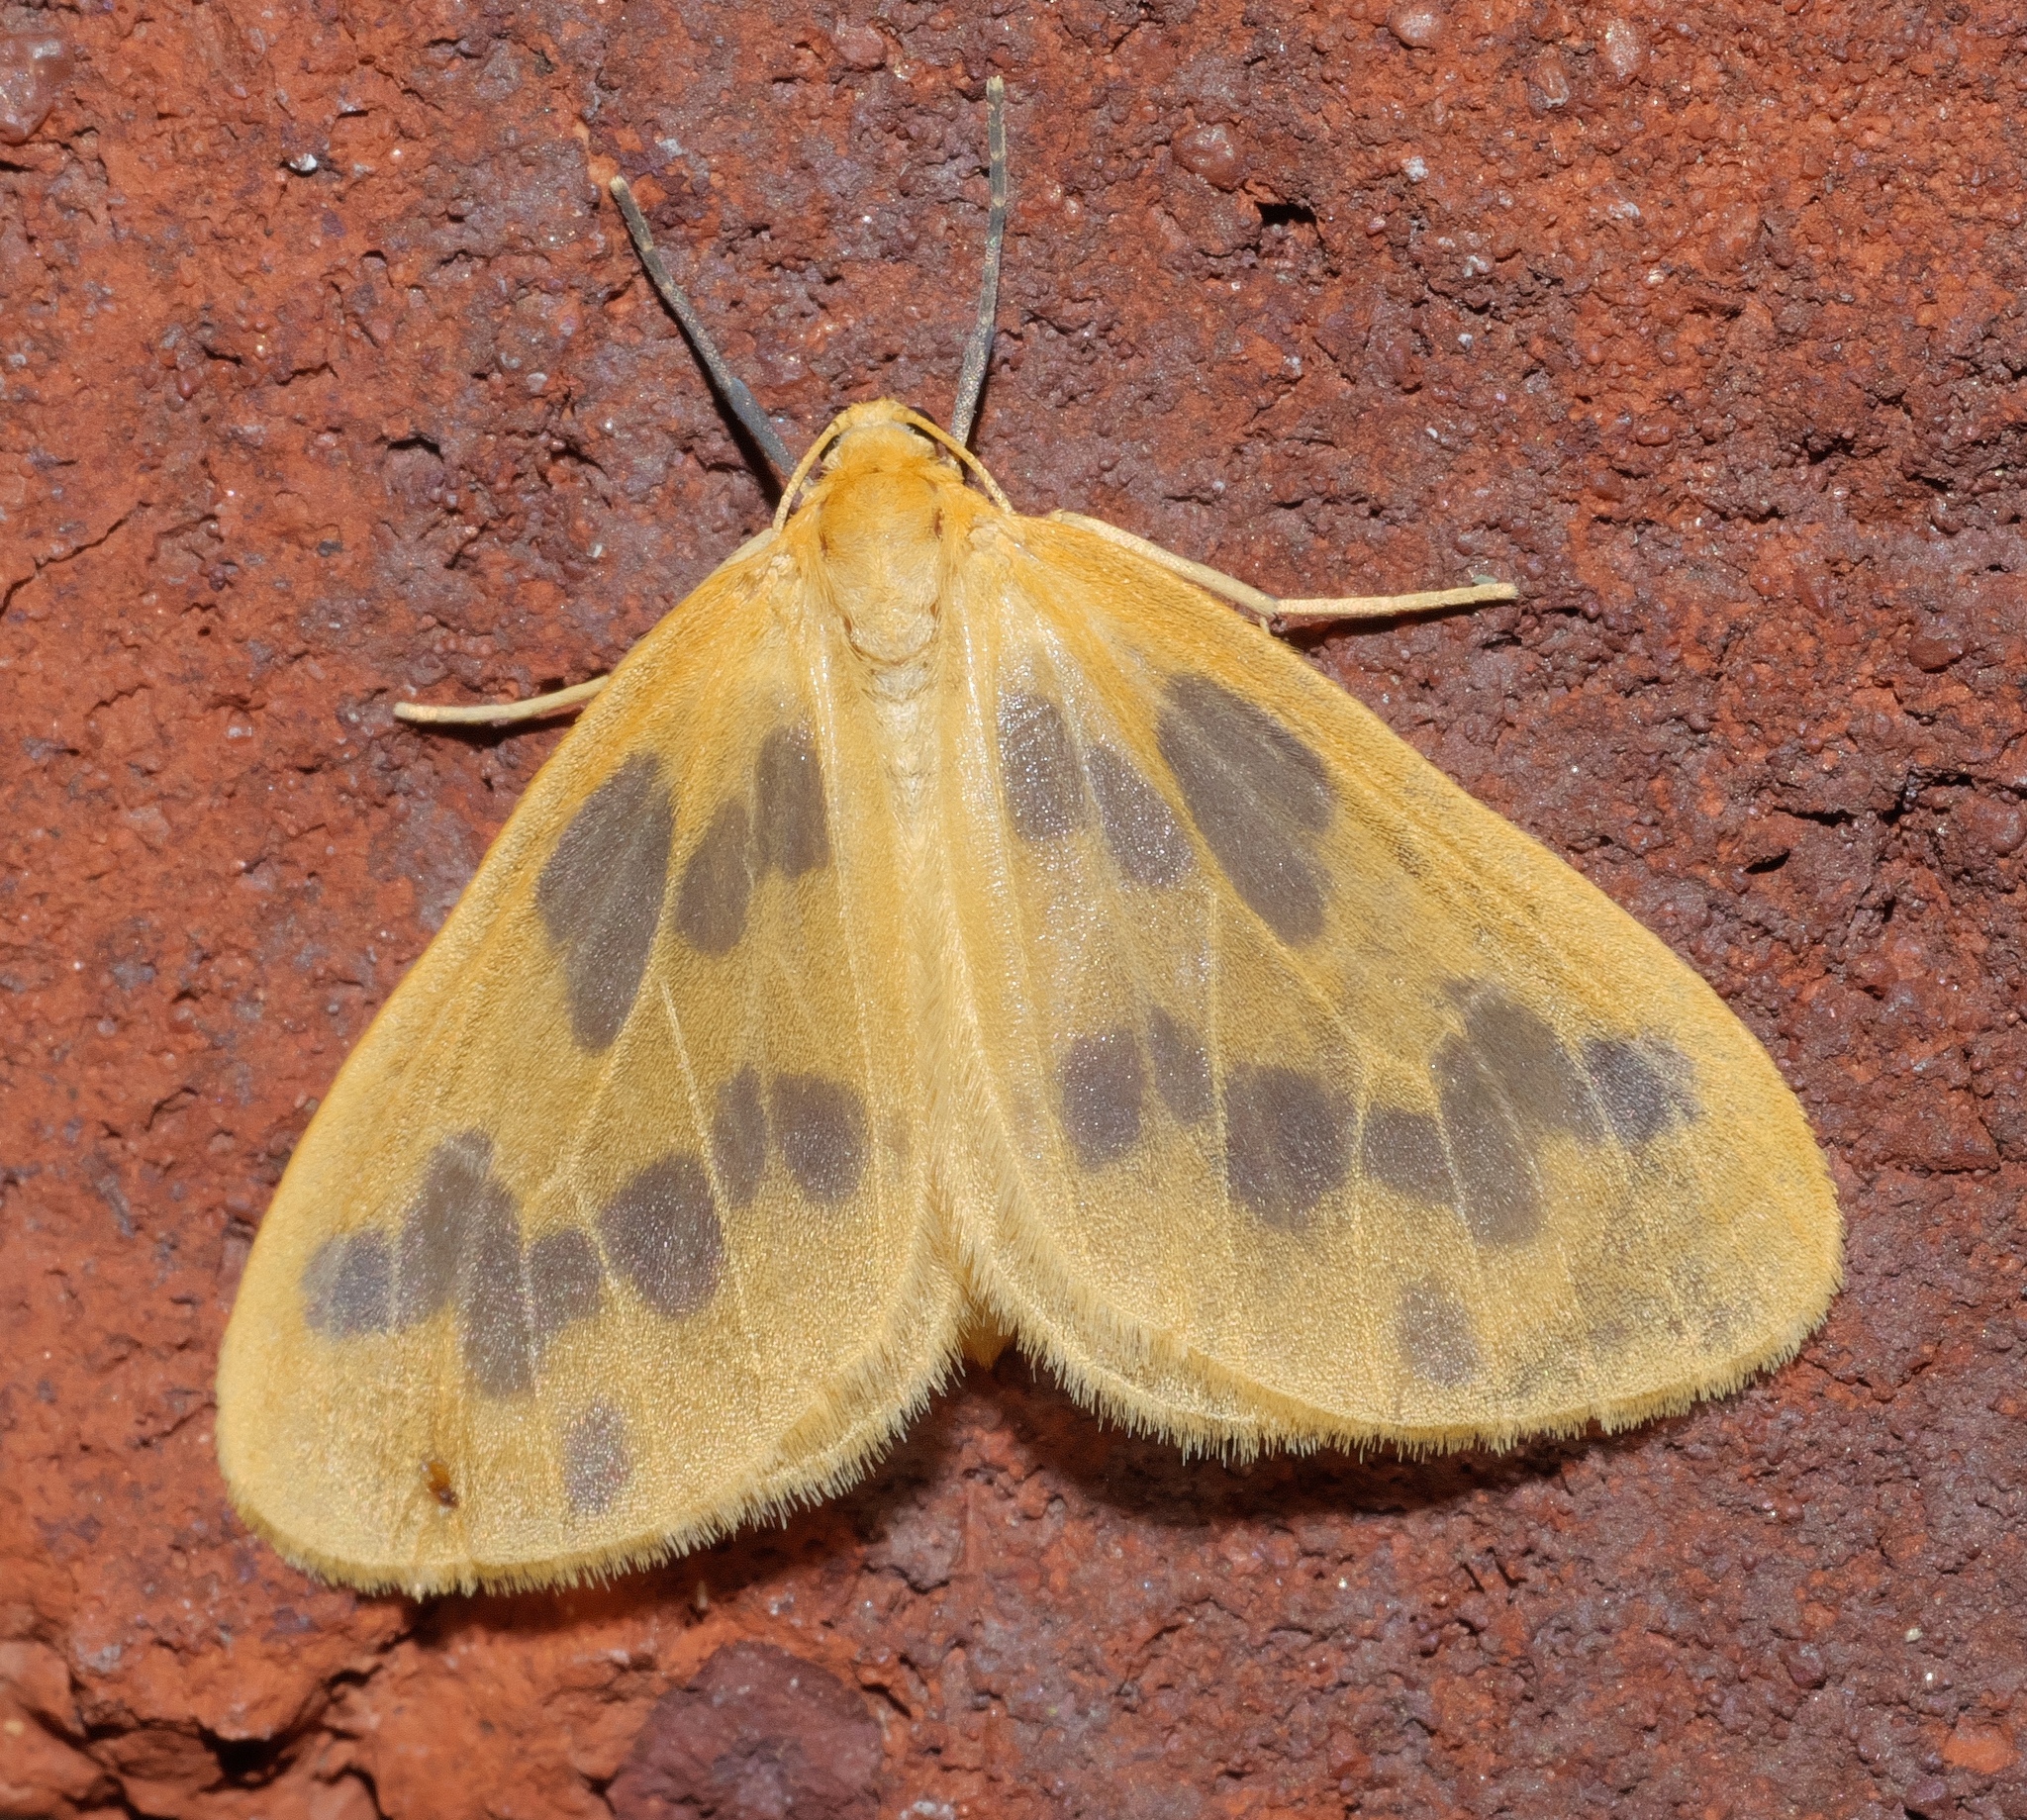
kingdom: Animalia
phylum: Arthropoda
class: Insecta
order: Lepidoptera
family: Geometridae
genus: Eubaphe
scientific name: Eubaphe mendica
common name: Beggar
